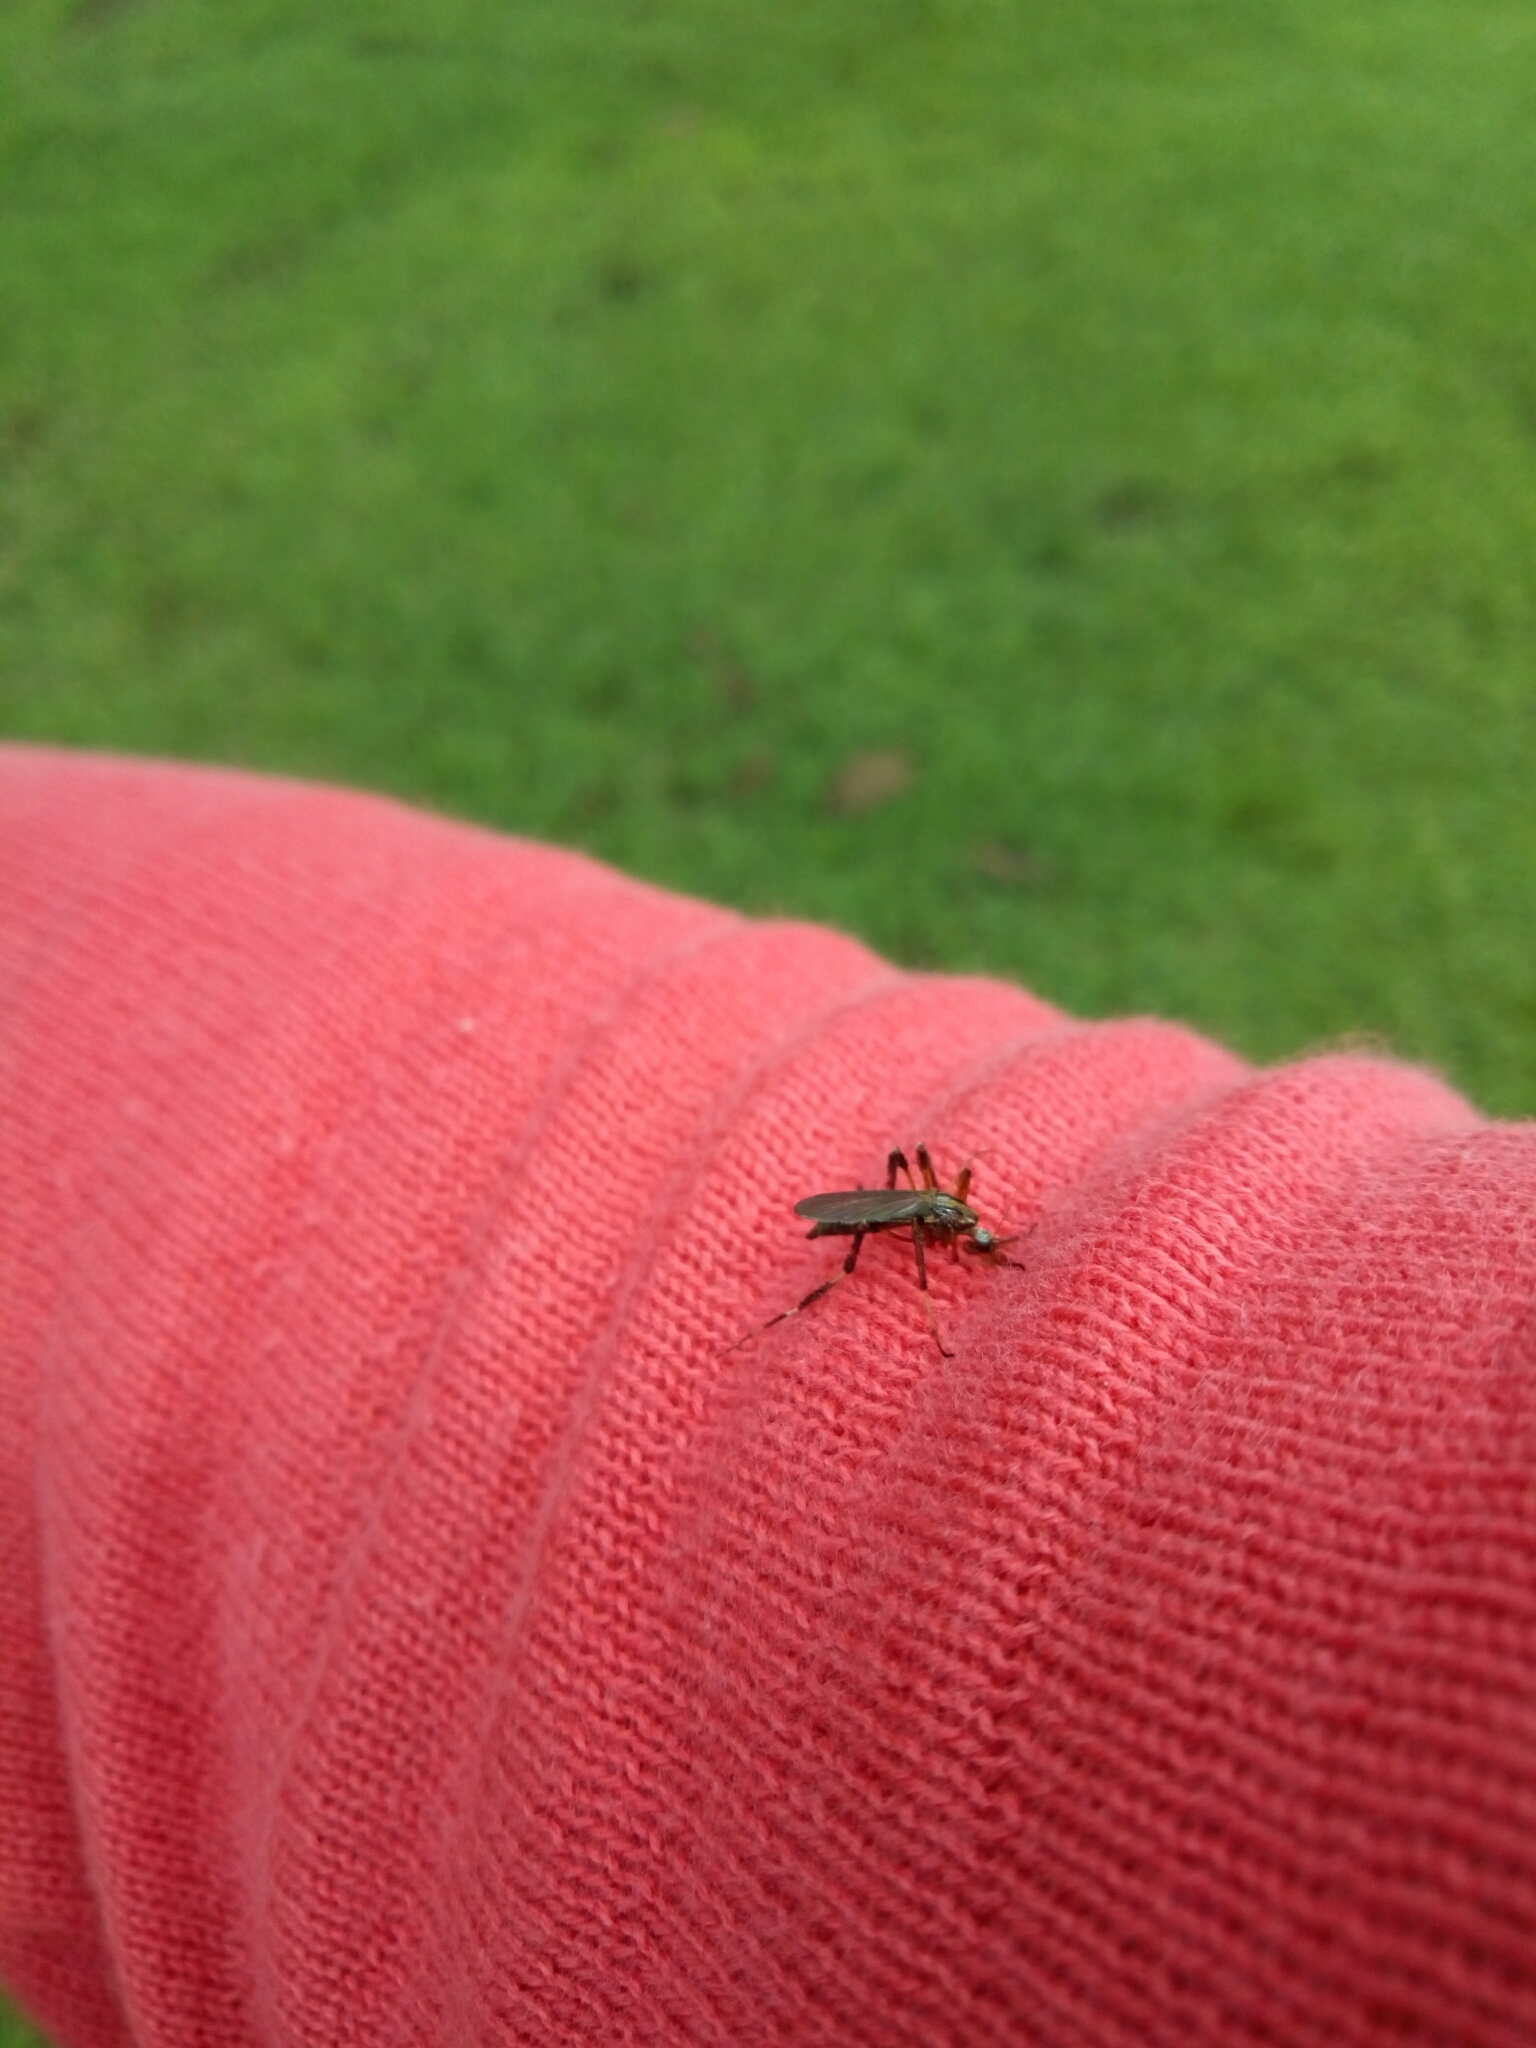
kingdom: Animalia
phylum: Arthropoda
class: Insecta
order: Diptera
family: Culicidae
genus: Psorophora
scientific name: Psorophora ciliata
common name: Gallinipper
